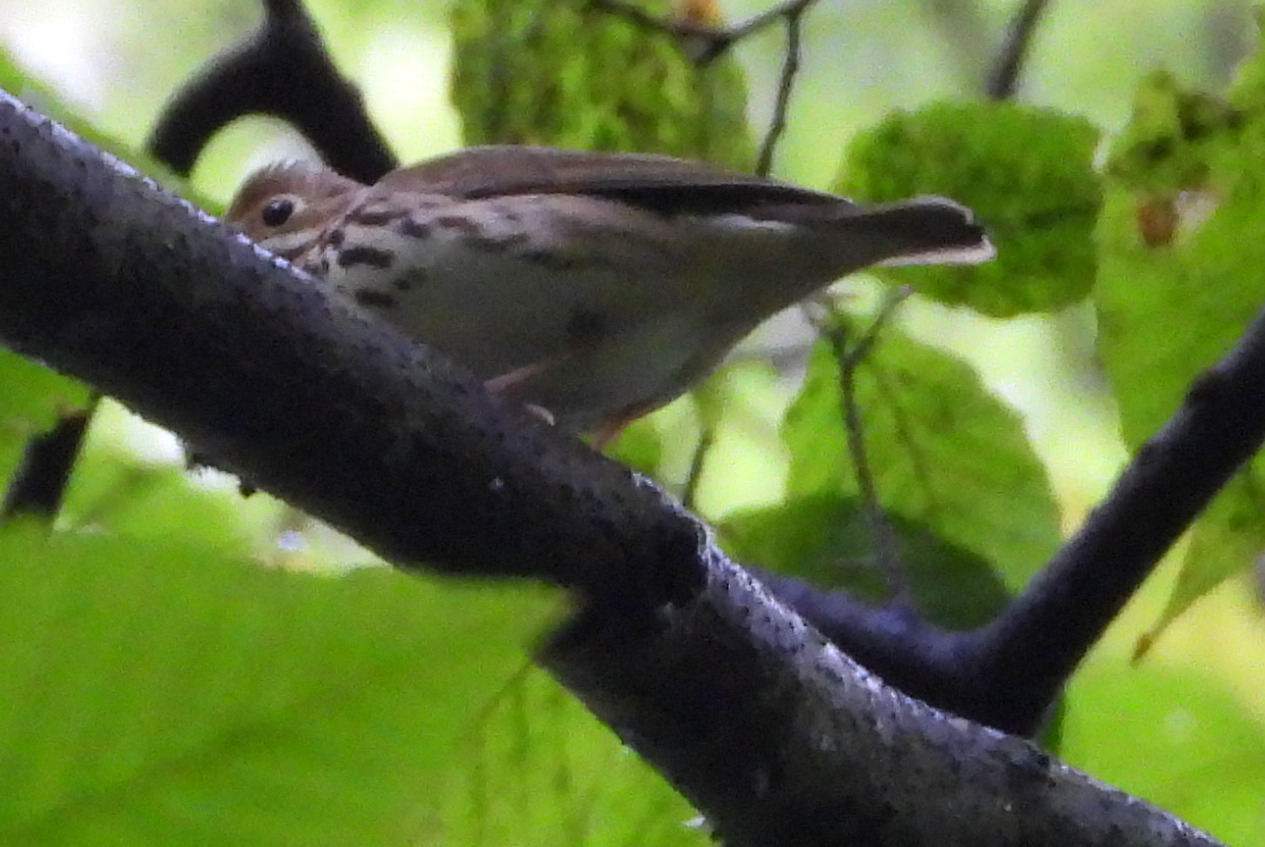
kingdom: Animalia
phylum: Chordata
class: Aves
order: Passeriformes
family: Parulidae
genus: Seiurus
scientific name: Seiurus aurocapilla
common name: Ovenbird
